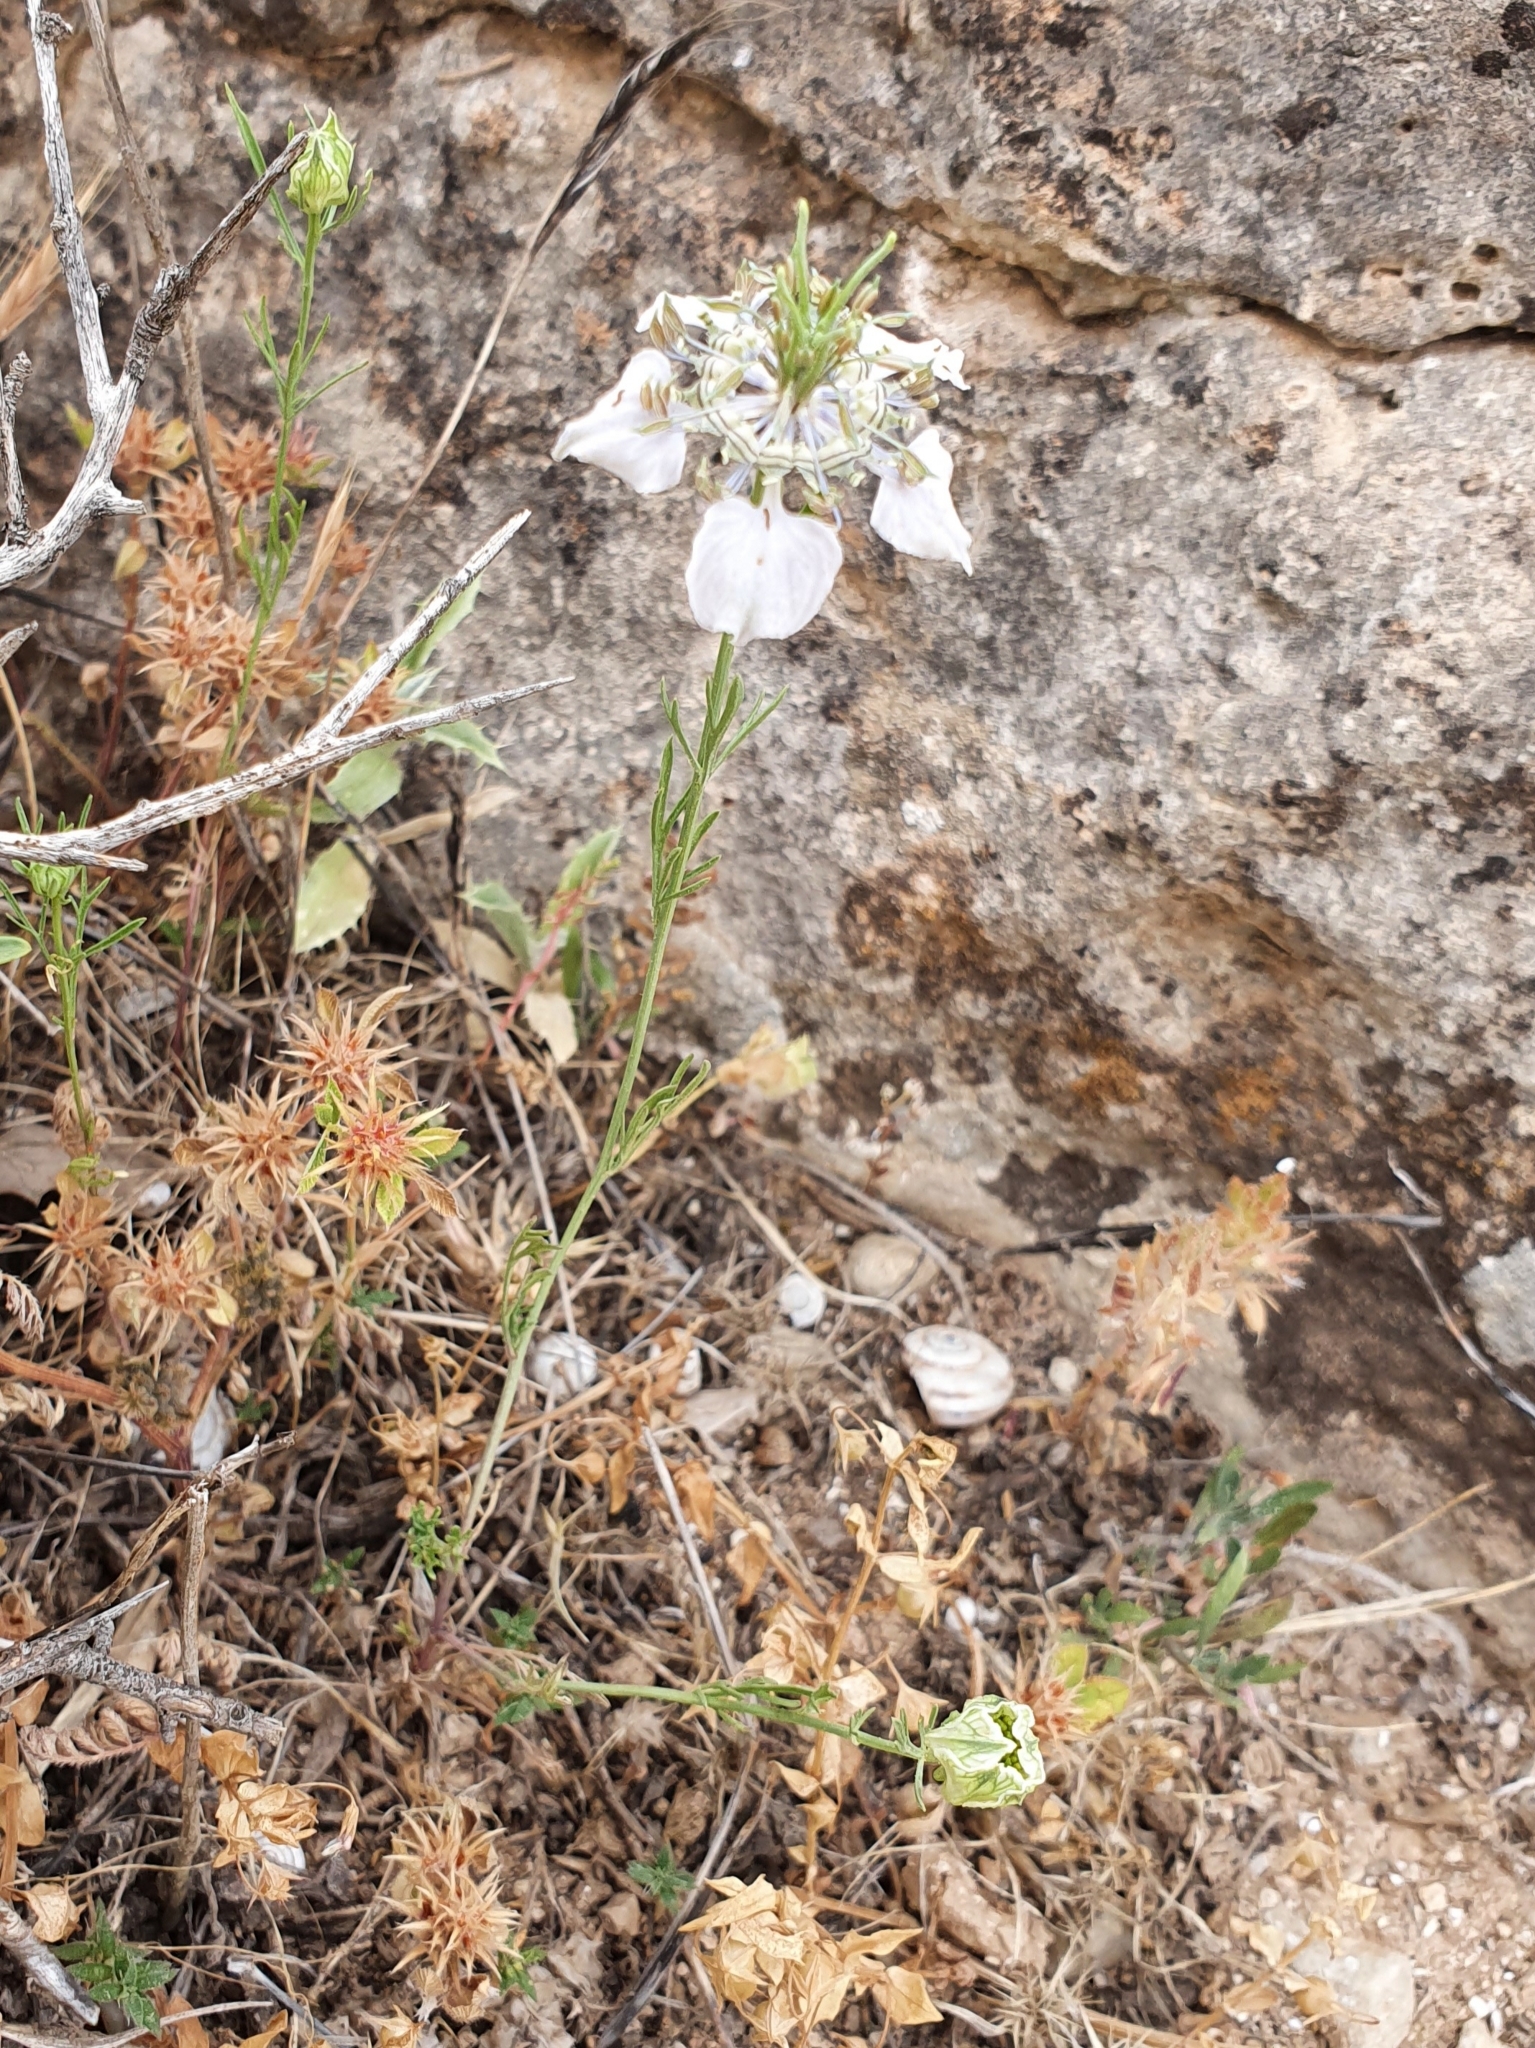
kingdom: Plantae
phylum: Tracheophyta
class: Magnoliopsida
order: Ranunculales
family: Ranunculaceae
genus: Nigella
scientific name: Nigella arvensis
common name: Wild fennel-flower
